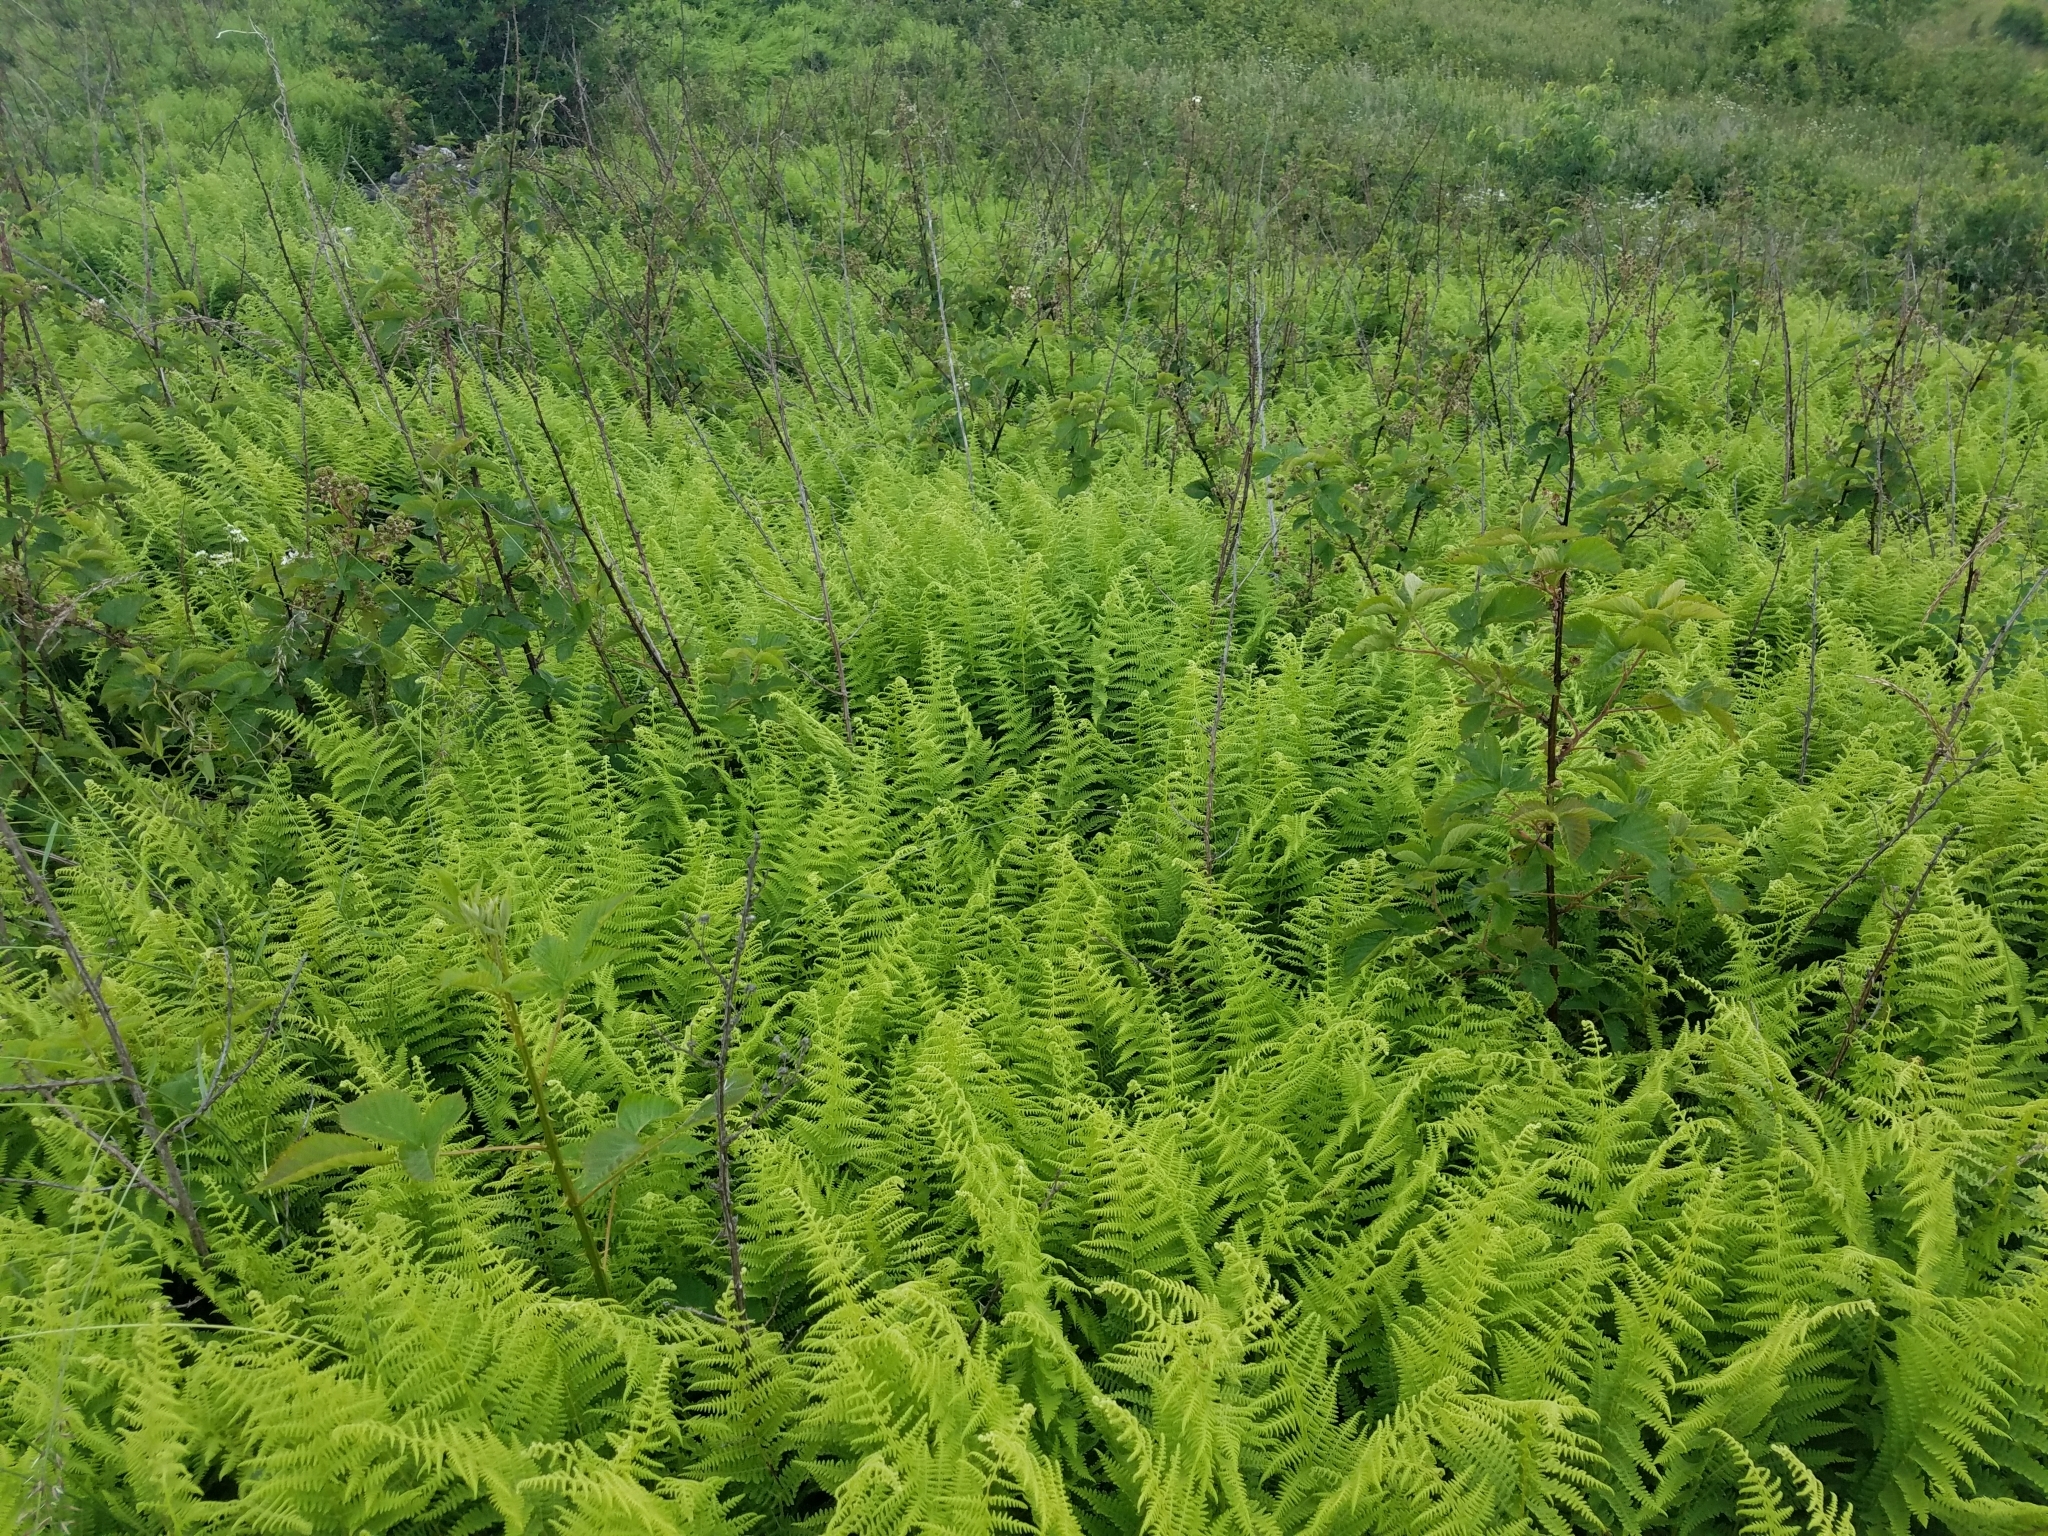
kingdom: Plantae
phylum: Tracheophyta
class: Polypodiopsida
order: Polypodiales
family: Dennstaedtiaceae
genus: Sitobolium
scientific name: Sitobolium punctilobum
